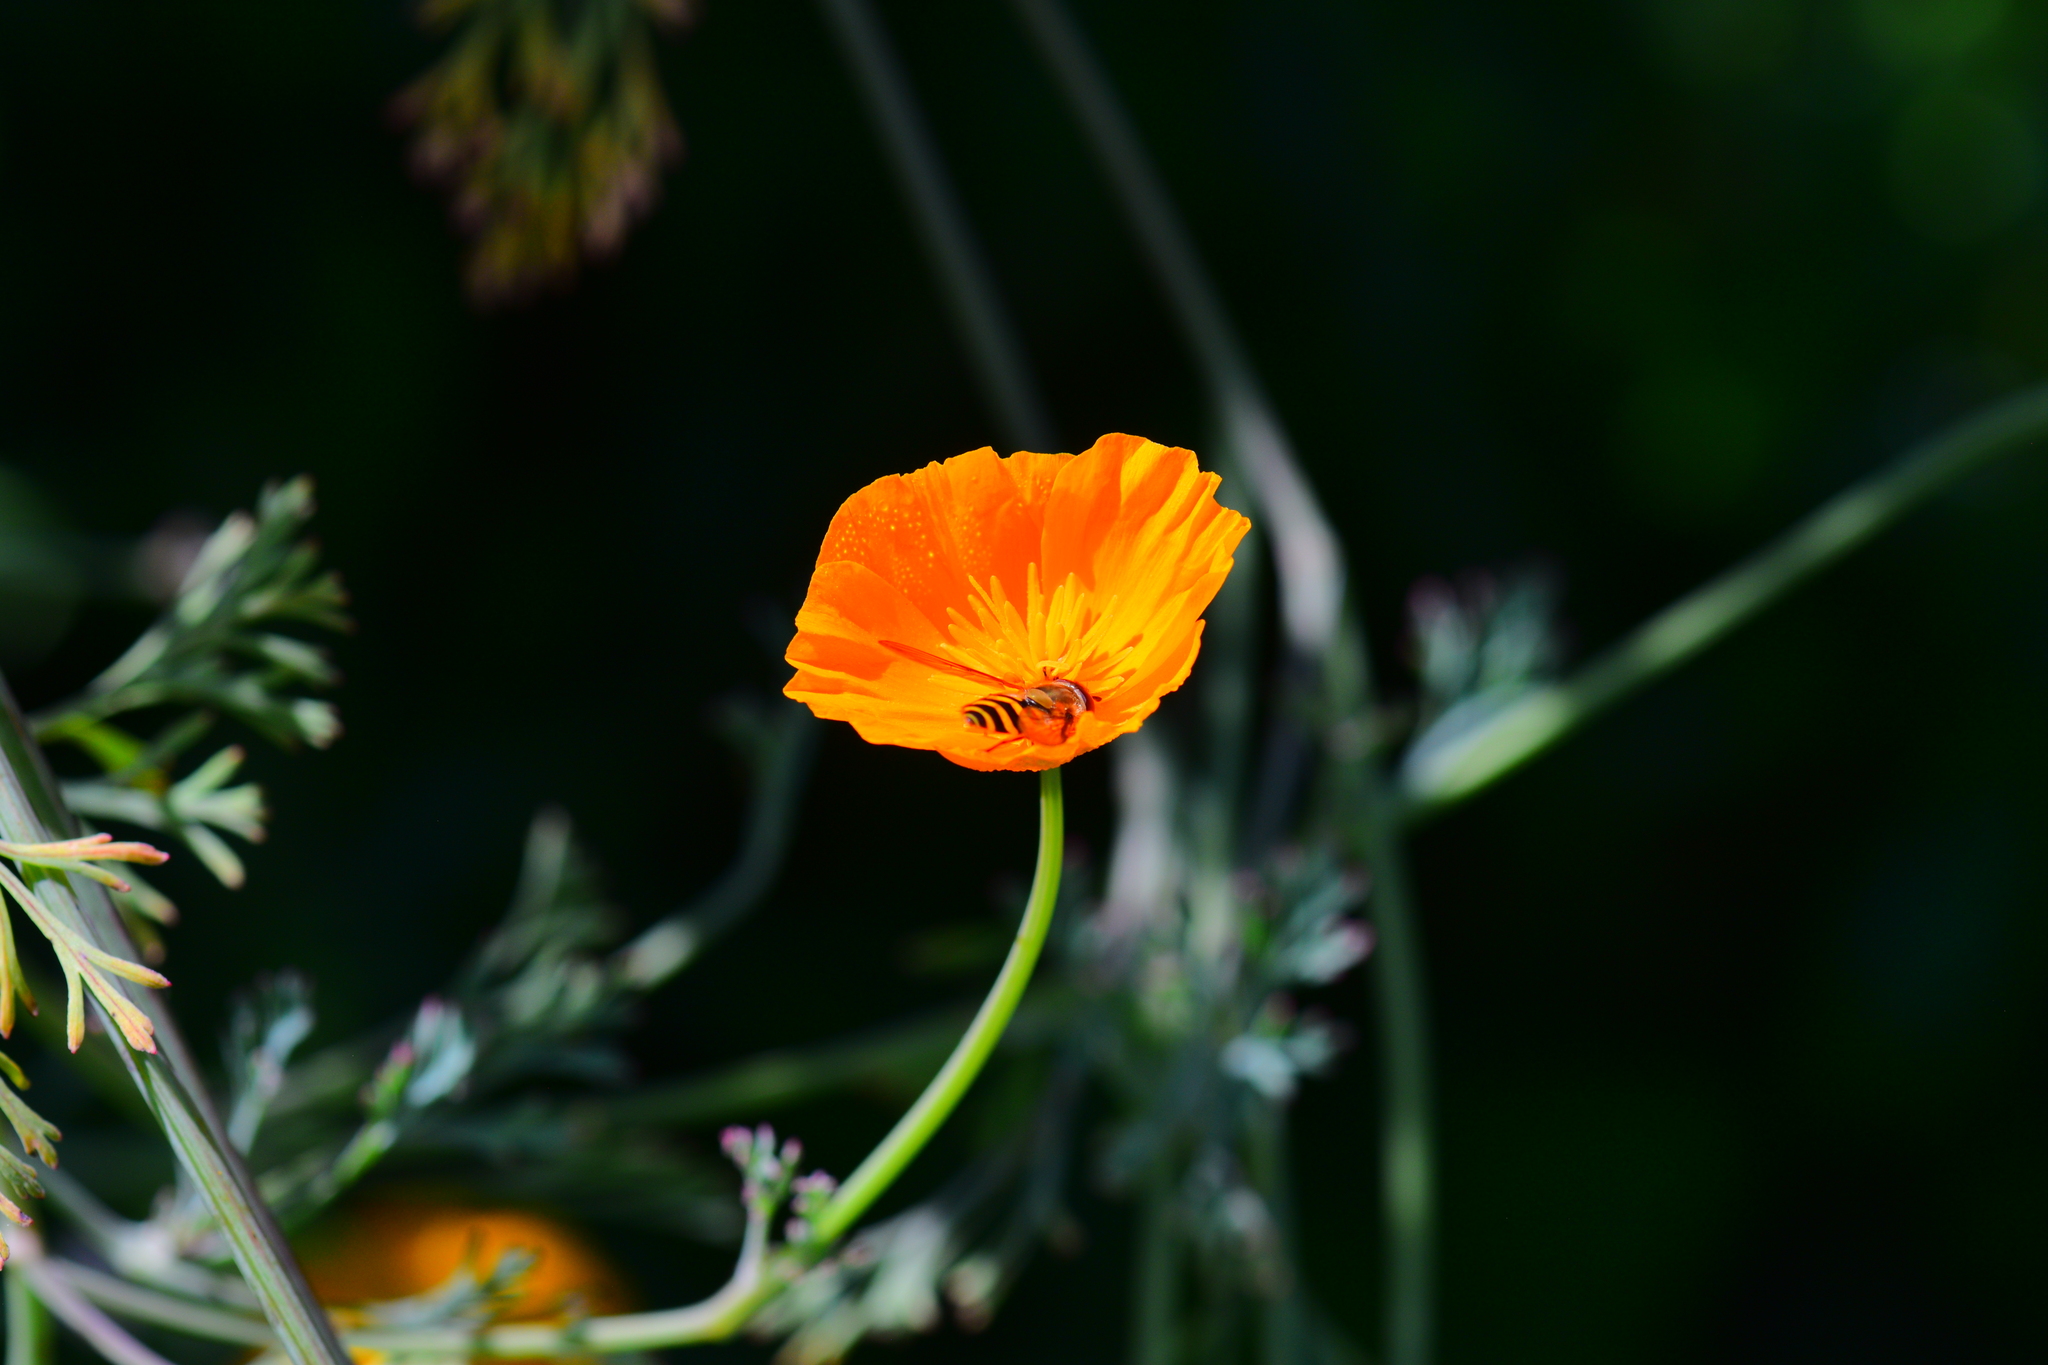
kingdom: Animalia
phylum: Arthropoda
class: Insecta
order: Diptera
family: Syrphidae
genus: Syrphus
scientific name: Syrphus
